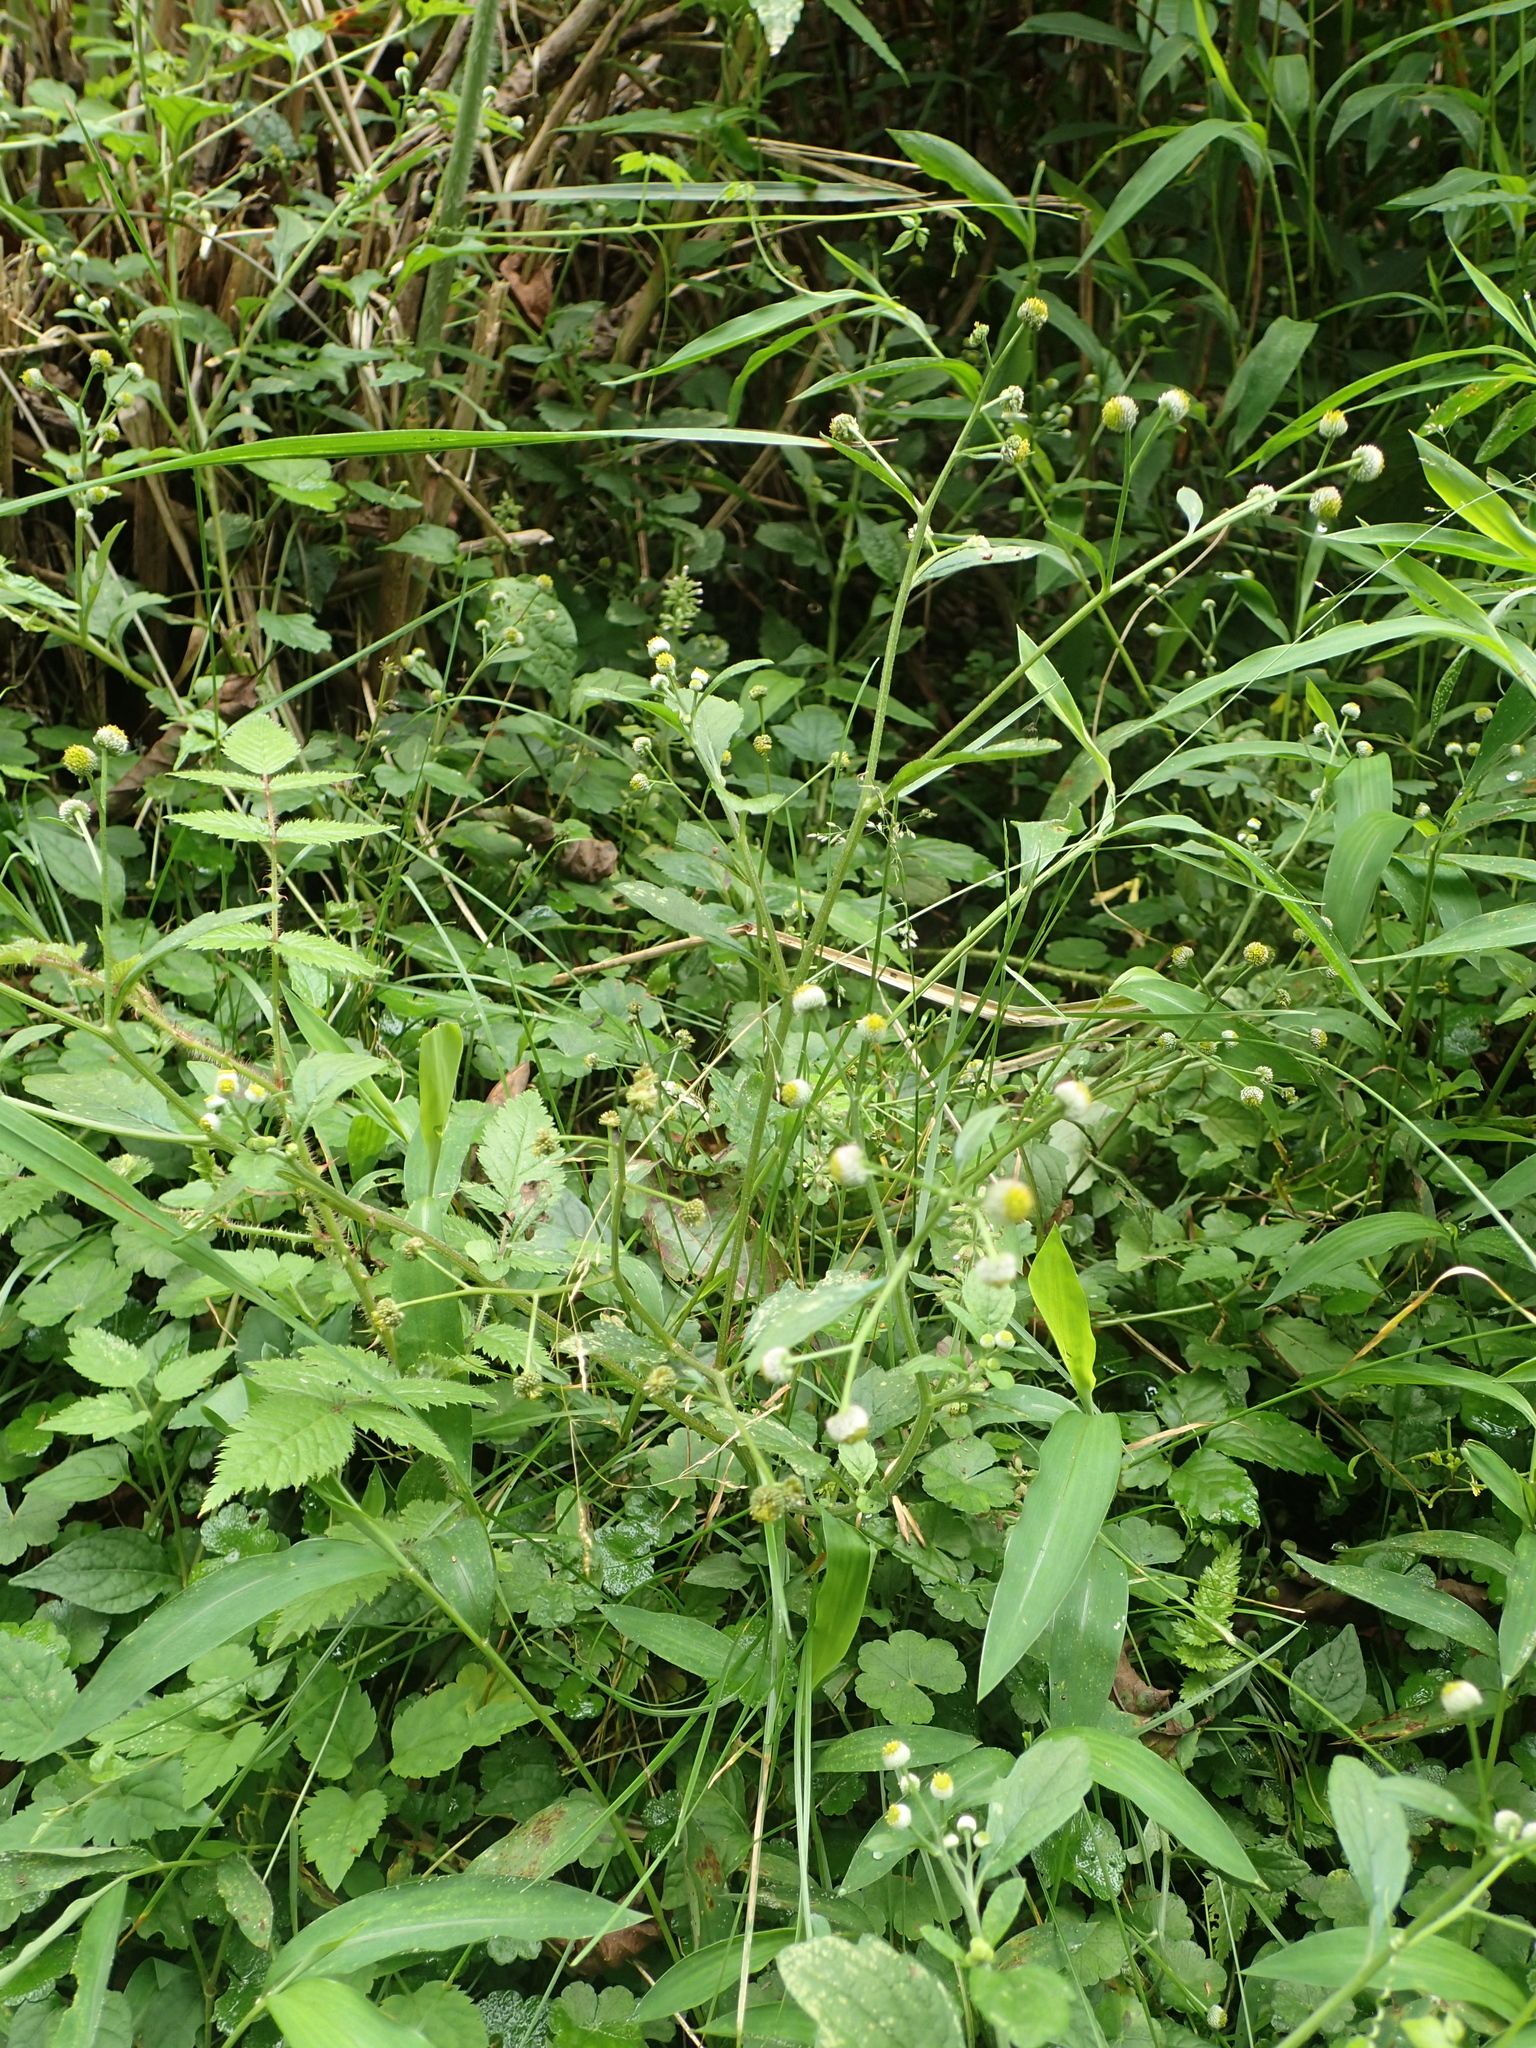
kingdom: Plantae
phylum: Tracheophyta
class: Magnoliopsida
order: Asterales
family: Asteraceae
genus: Dichrocephala
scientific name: Dichrocephala integrifolia
